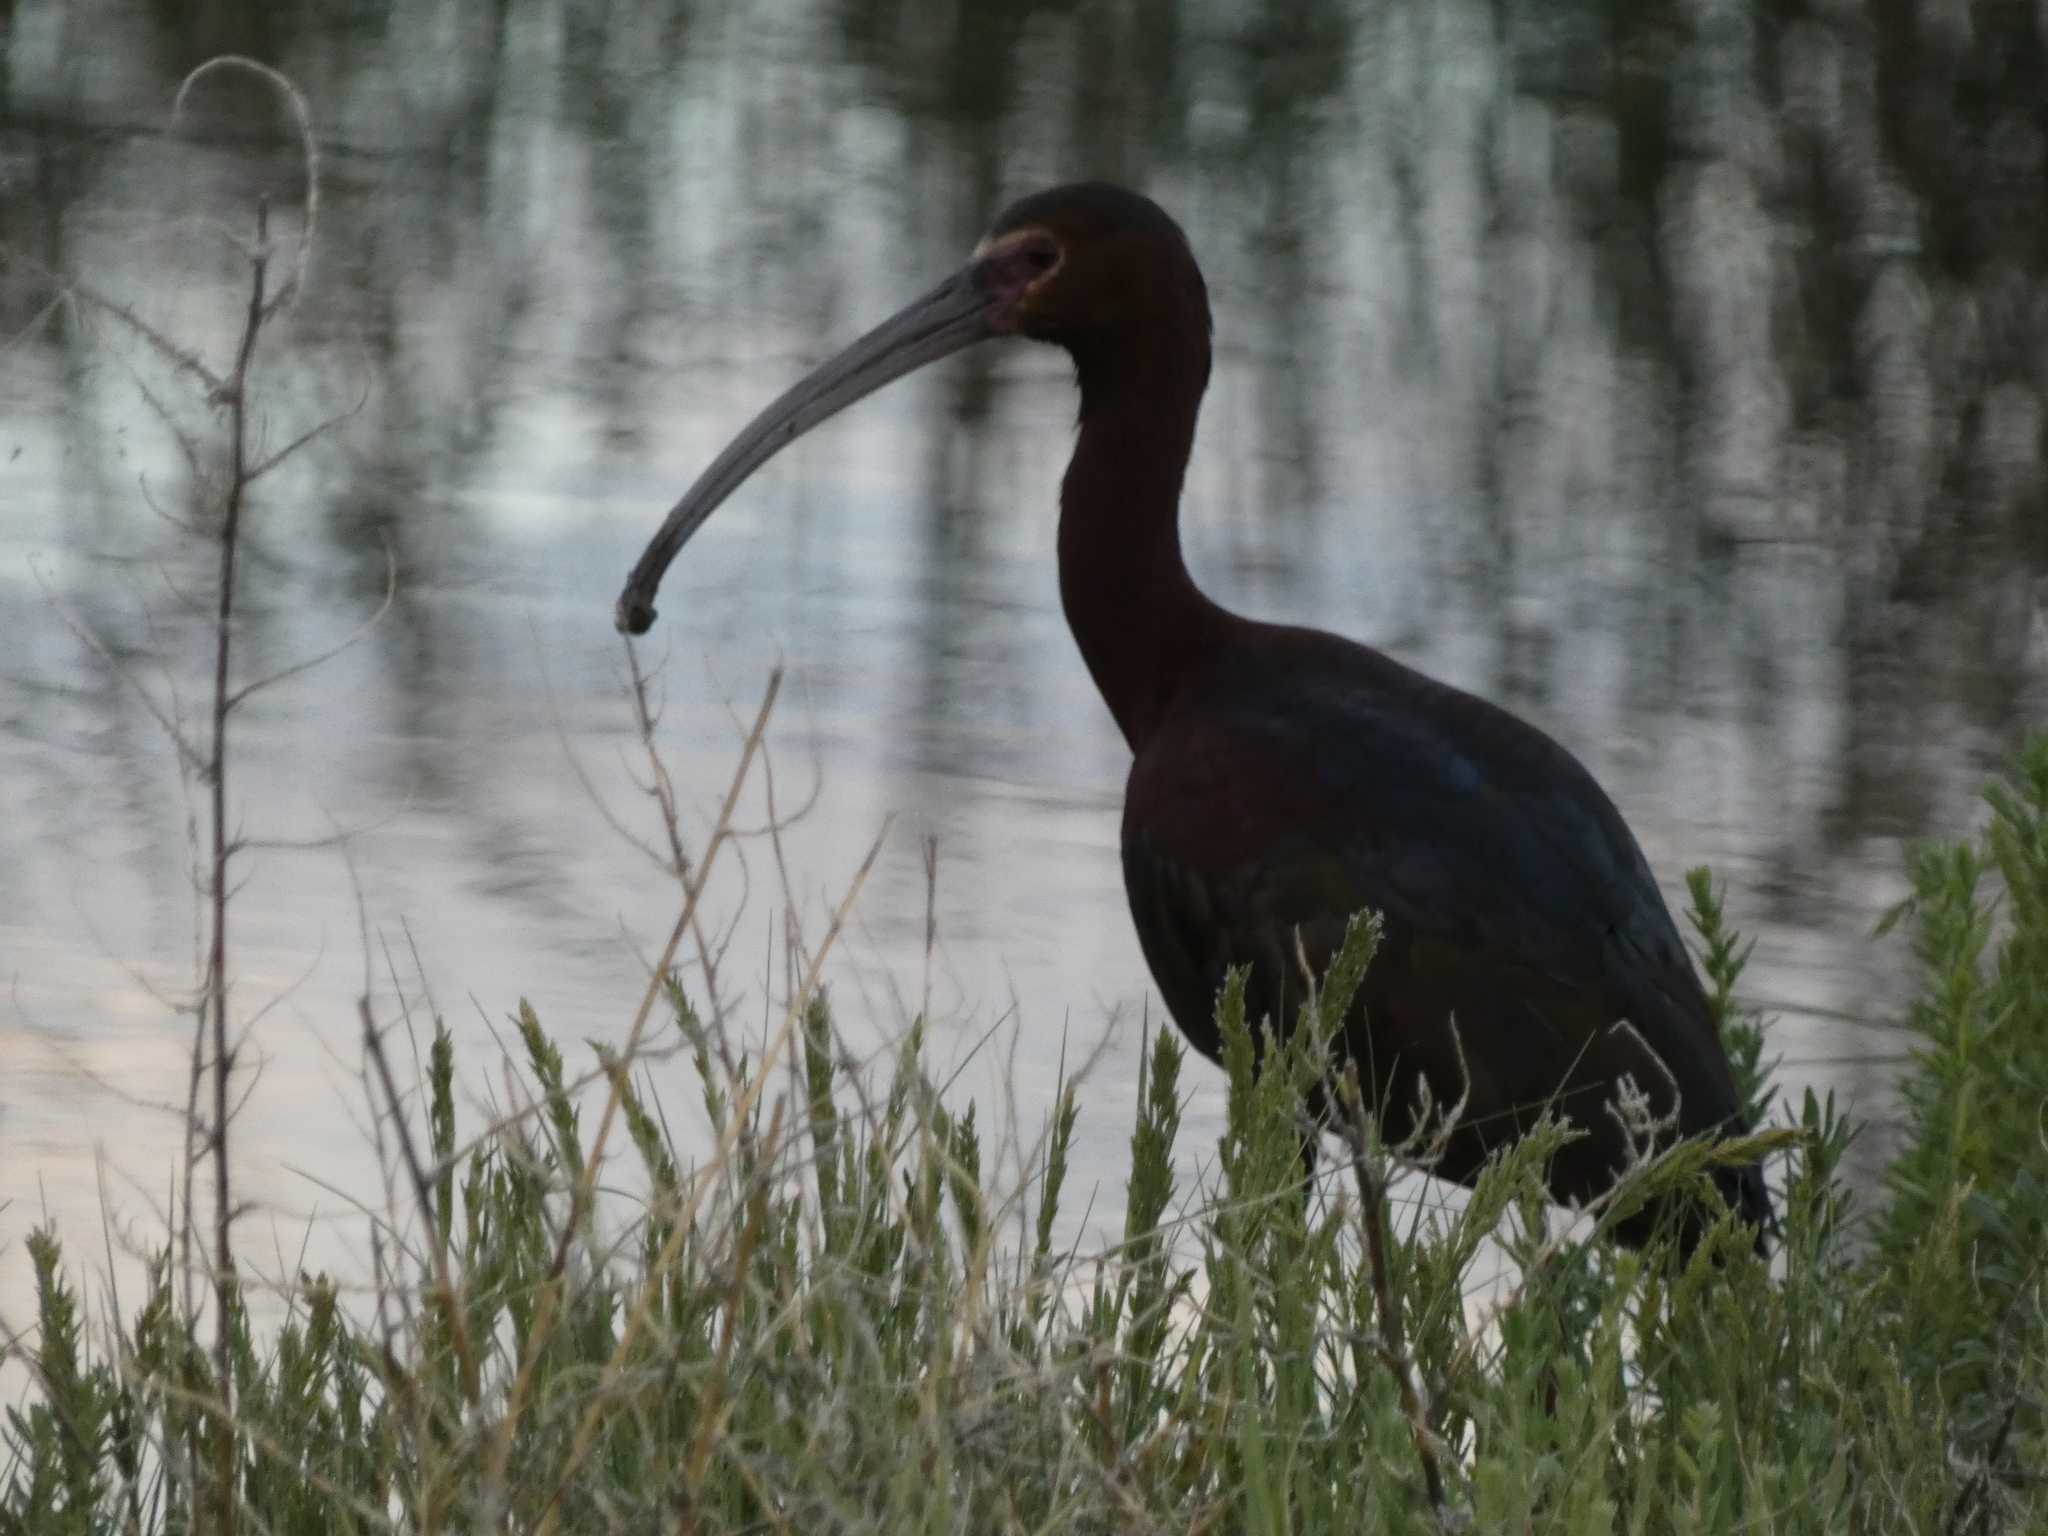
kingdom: Animalia
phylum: Chordata
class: Aves
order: Pelecaniformes
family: Threskiornithidae
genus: Plegadis
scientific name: Plegadis chihi
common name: White-faced ibis
